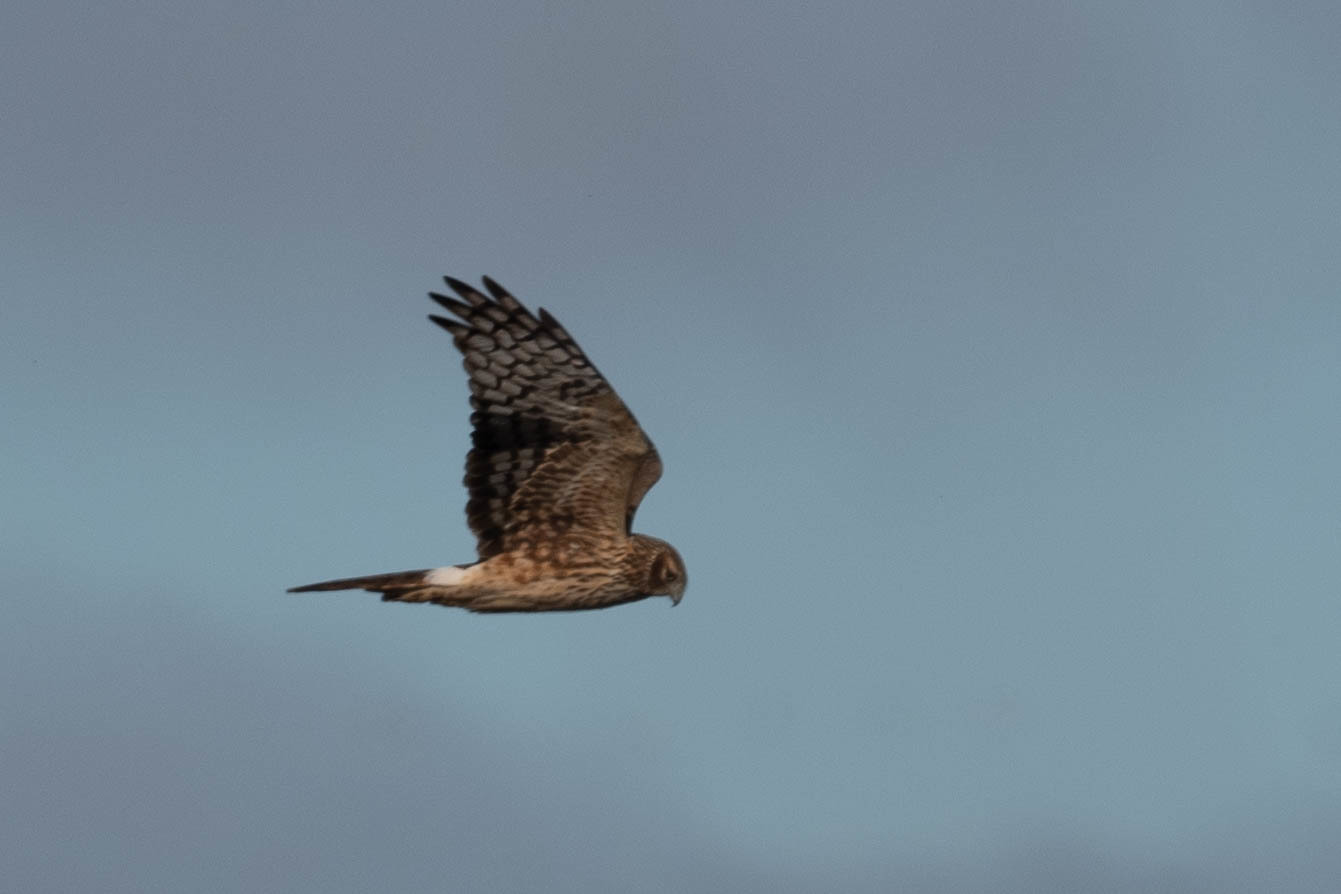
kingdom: Animalia
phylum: Chordata
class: Aves
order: Accipitriformes
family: Accipitridae
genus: Circus
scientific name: Circus cyaneus
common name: Hen harrier
